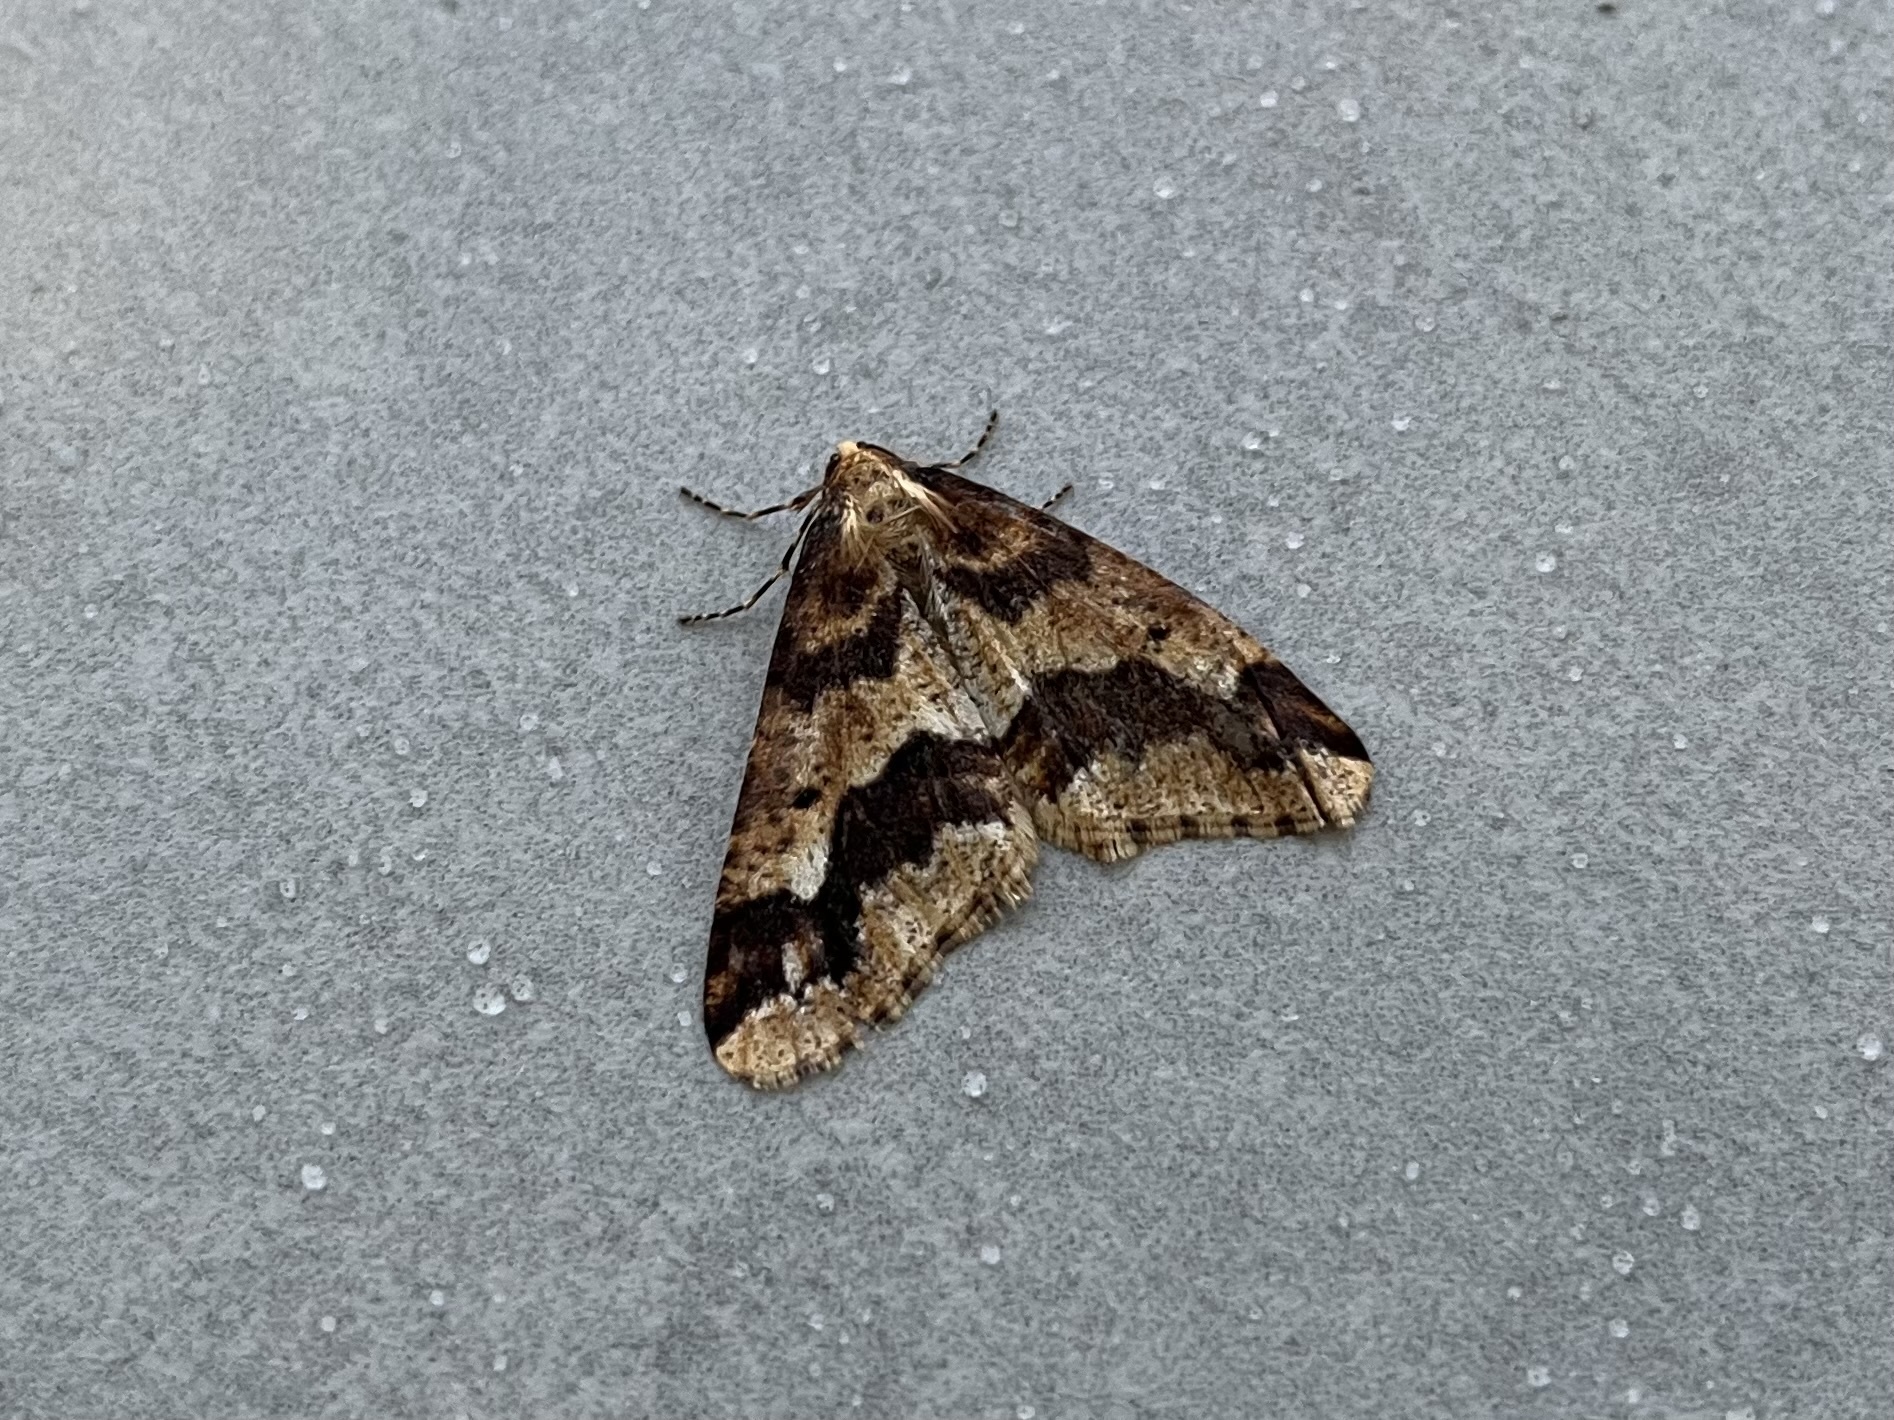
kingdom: Animalia
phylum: Arthropoda
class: Insecta
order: Lepidoptera
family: Geometridae
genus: Erannis
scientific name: Erannis defoliaria
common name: Mottled umber
